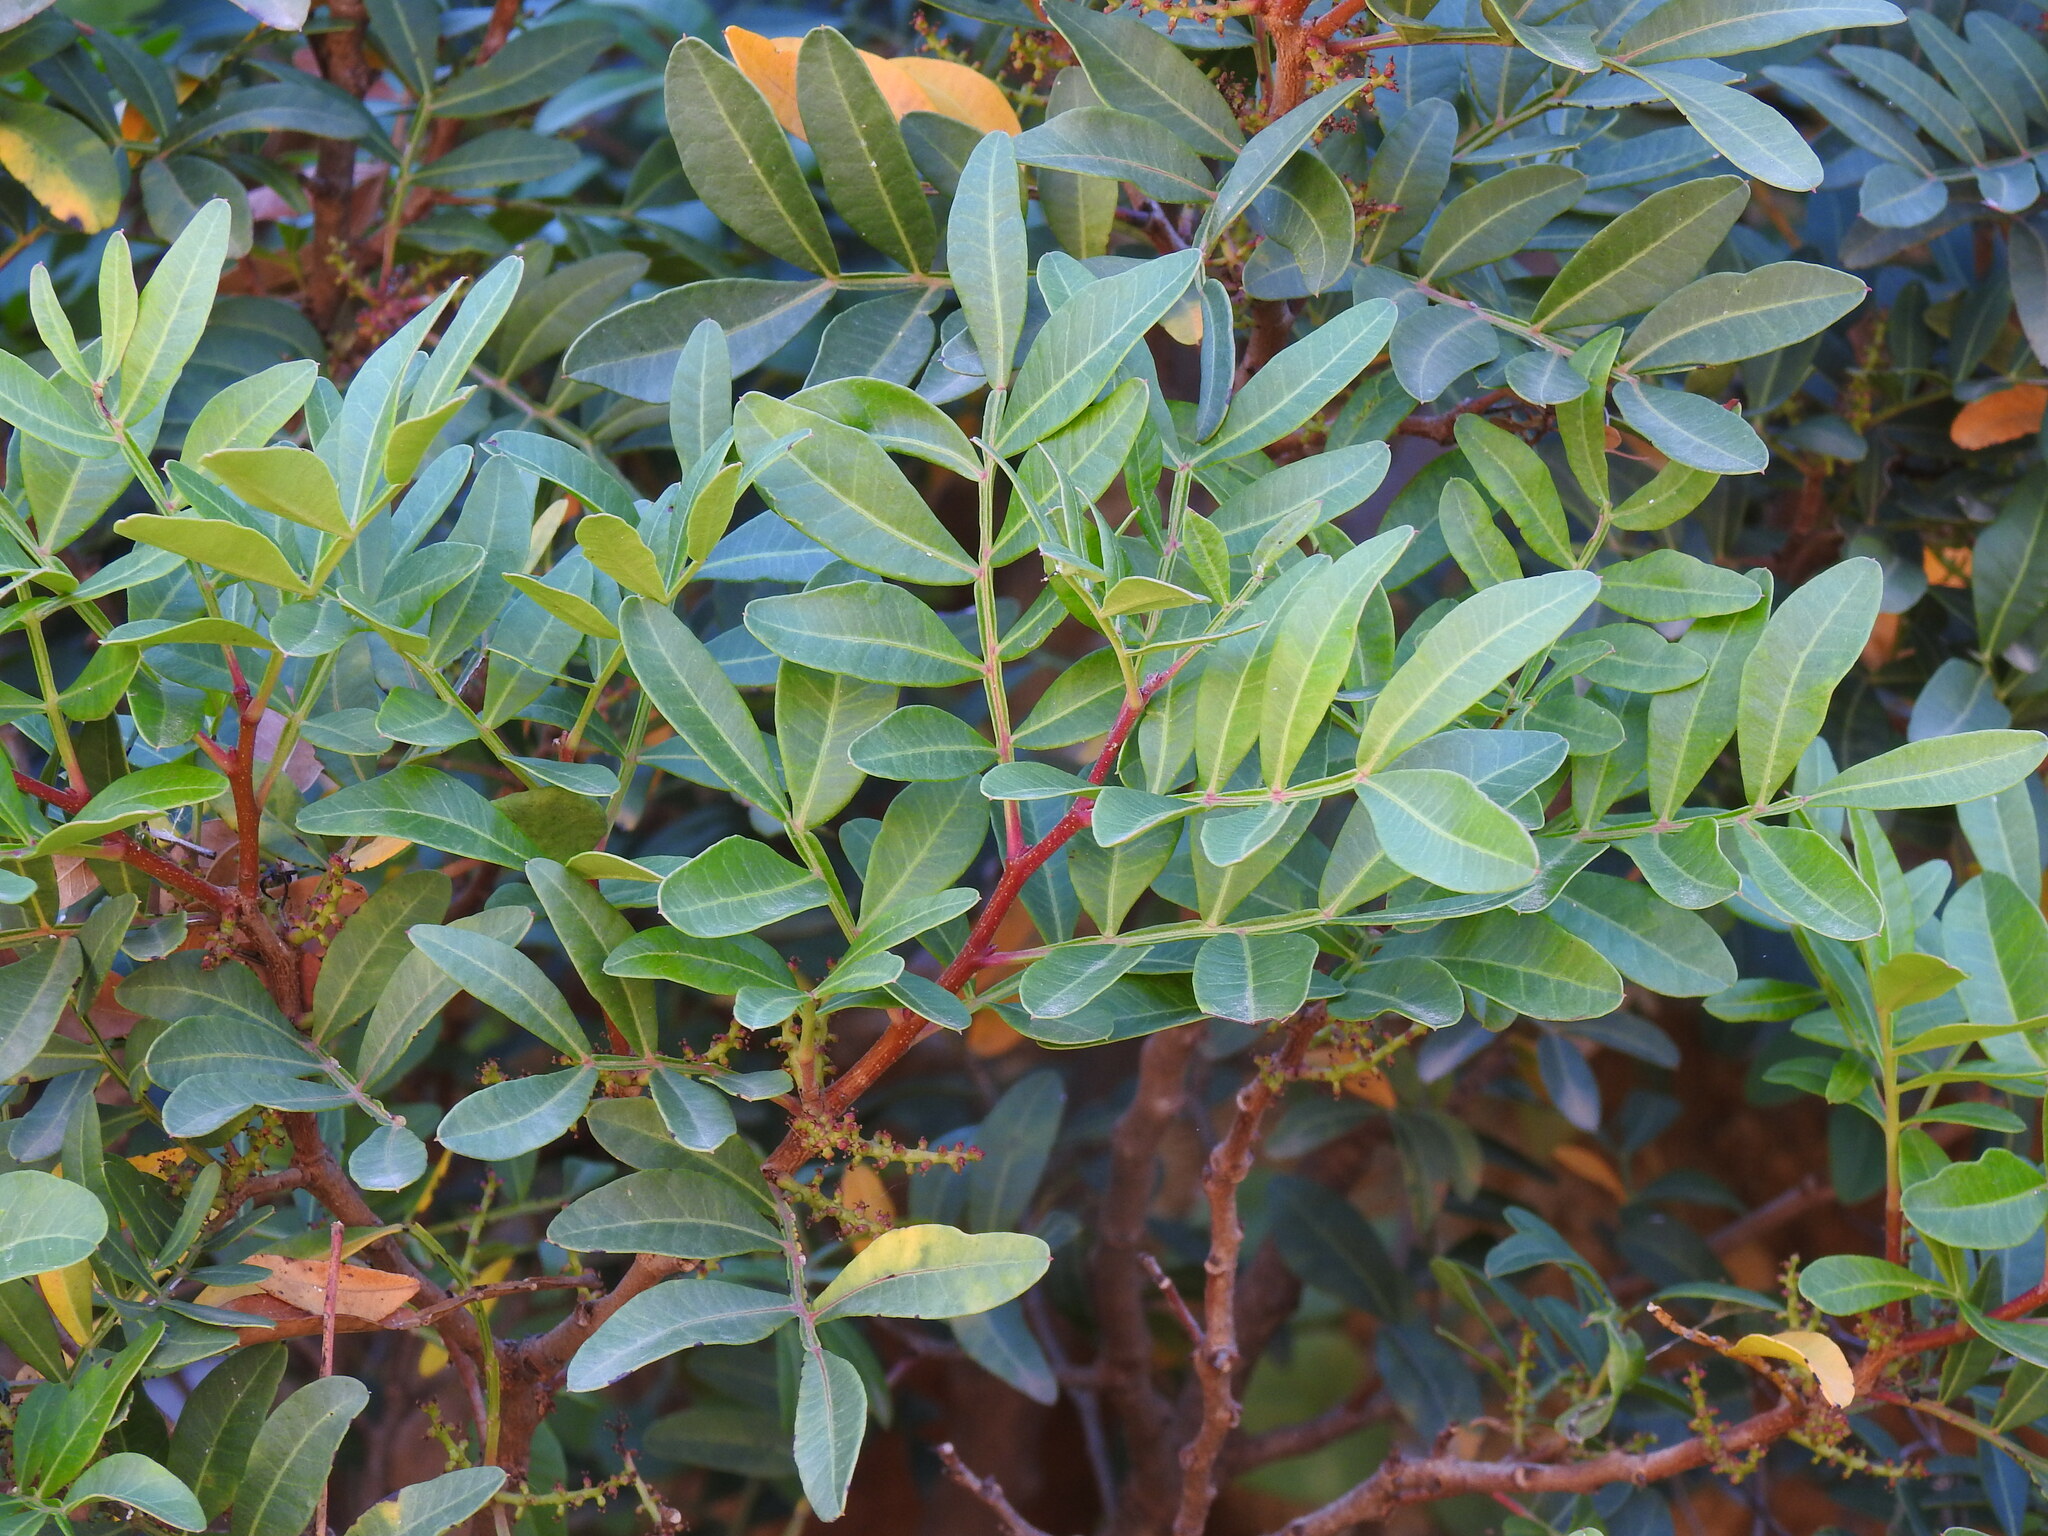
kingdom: Plantae
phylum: Tracheophyta
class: Magnoliopsida
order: Sapindales
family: Anacardiaceae
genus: Pistacia
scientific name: Pistacia lentiscus
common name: Lentisk
